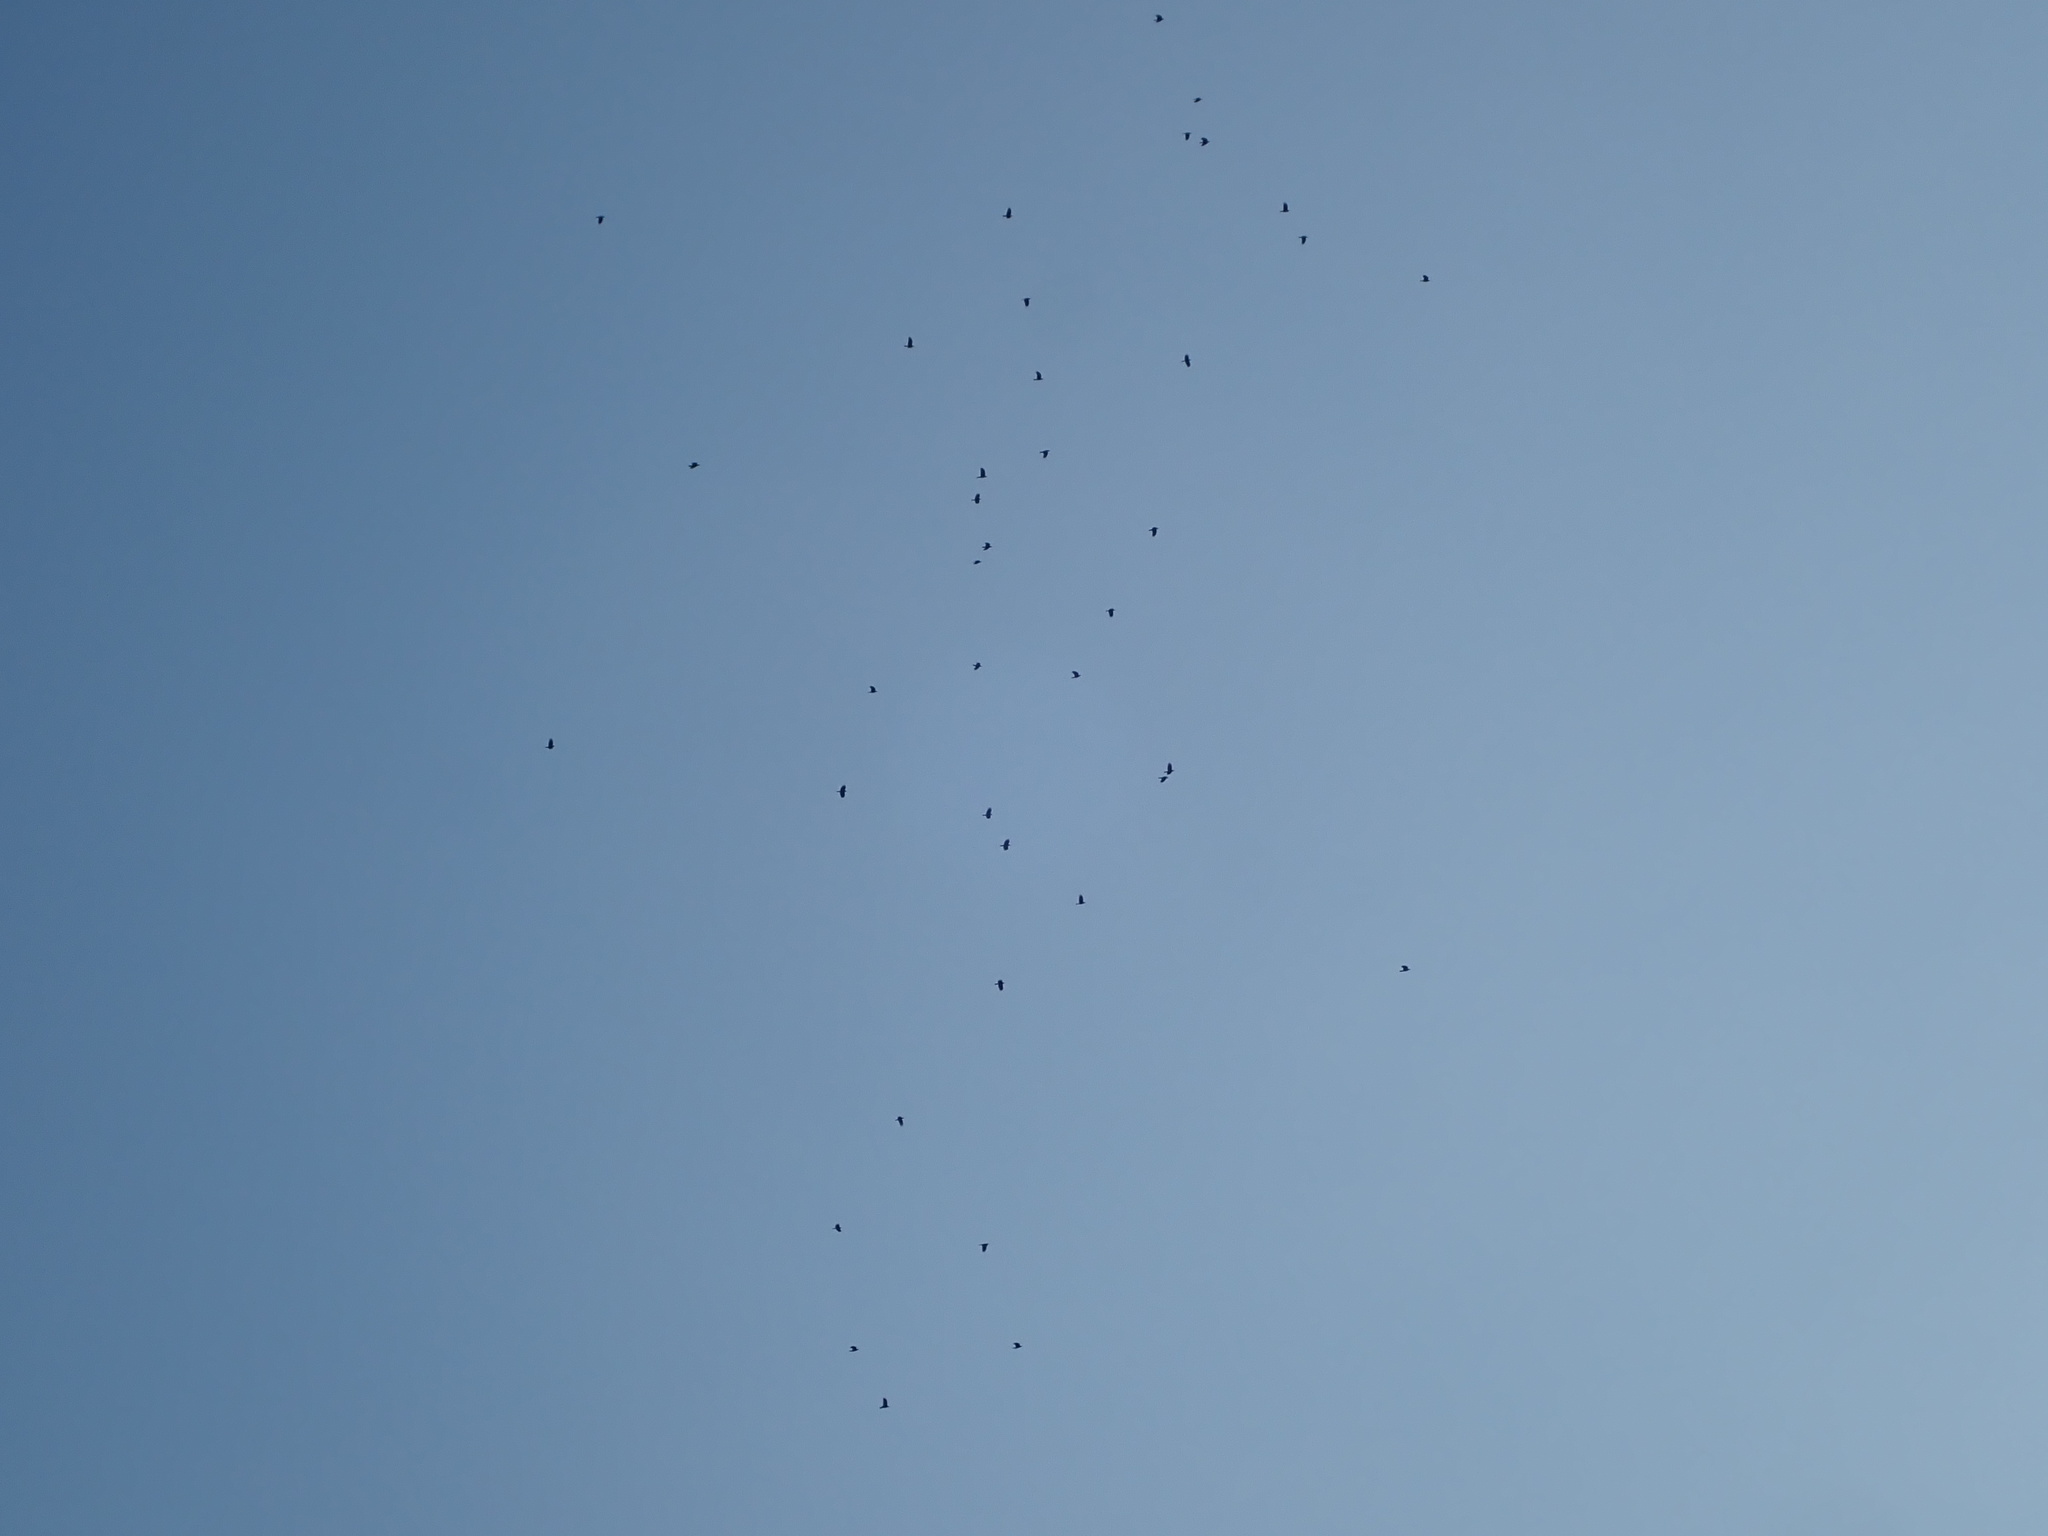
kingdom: Animalia
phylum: Chordata
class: Aves
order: Passeriformes
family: Corvidae
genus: Corvus
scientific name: Corvus brachyrhynchos
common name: American crow
